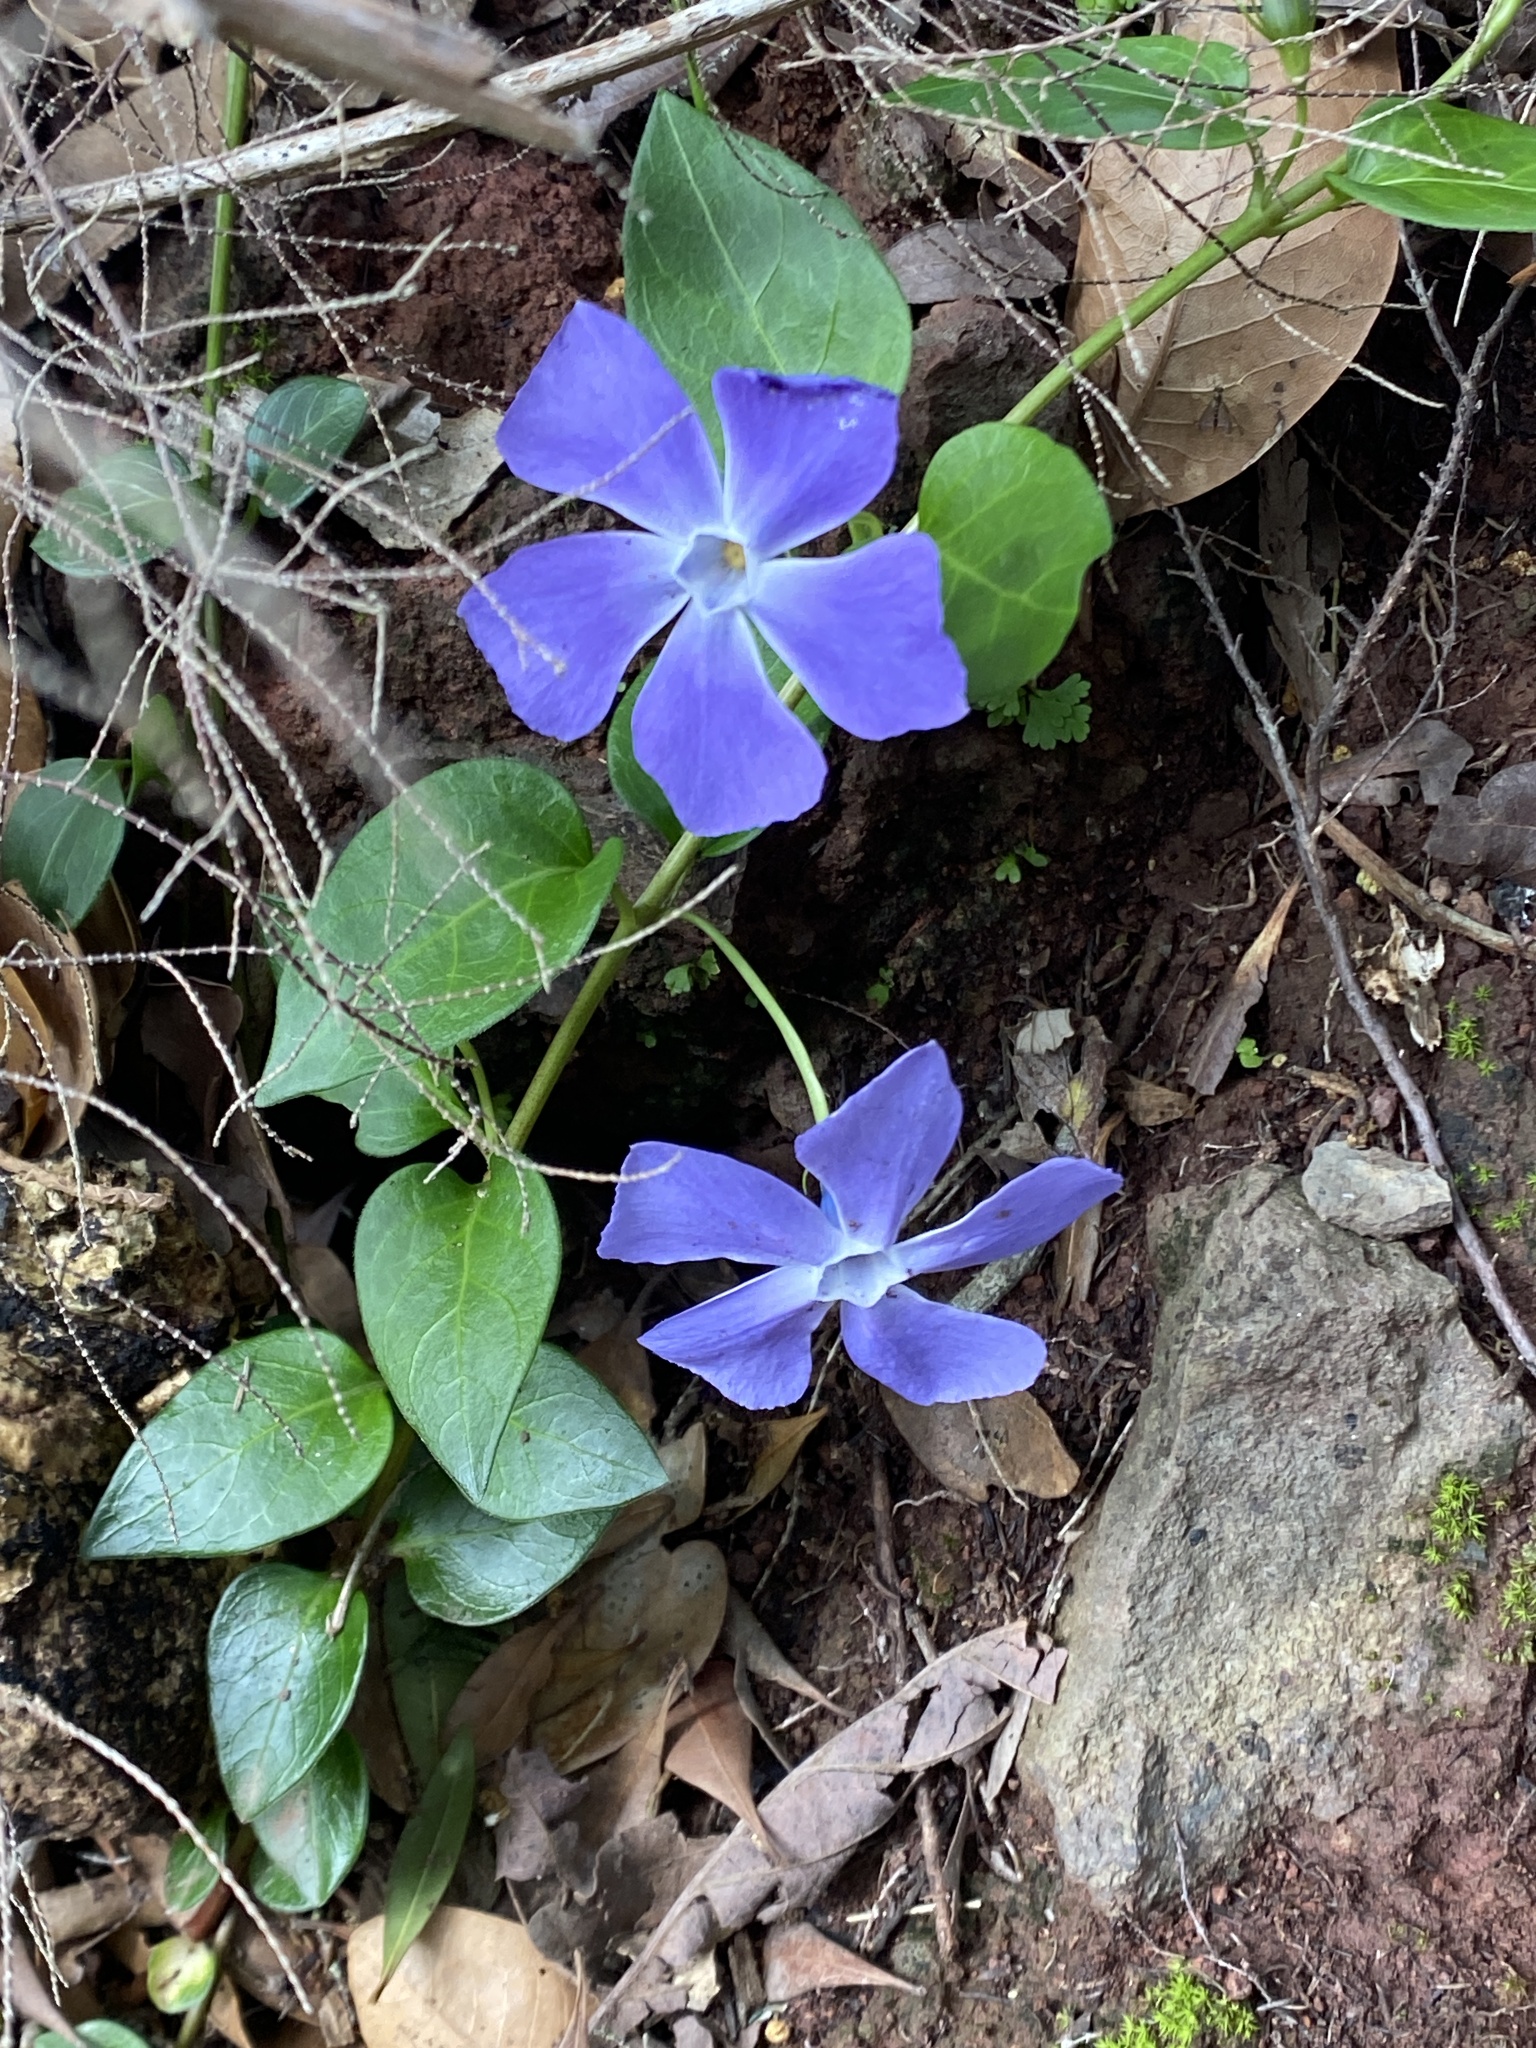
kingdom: Plantae
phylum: Tracheophyta
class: Magnoliopsida
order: Gentianales
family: Apocynaceae
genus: Vinca
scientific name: Vinca major
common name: Greater periwinkle
